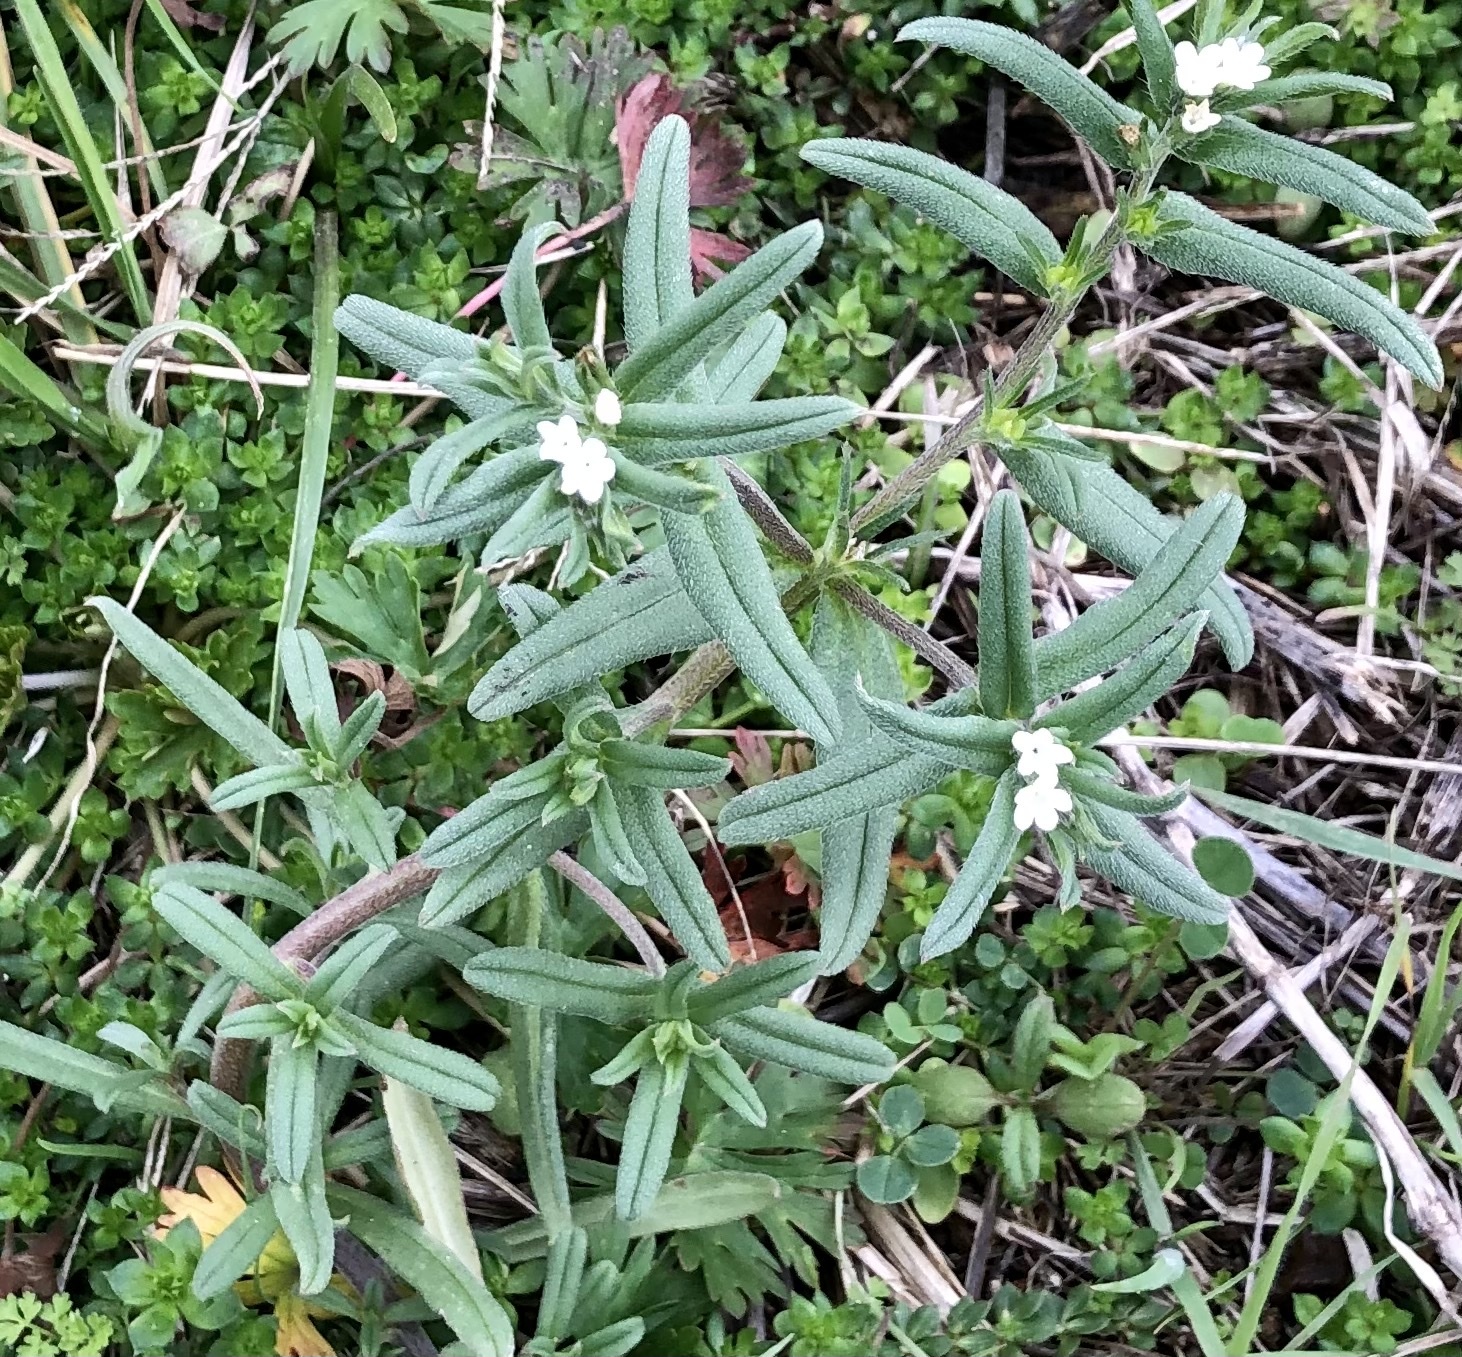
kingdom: Plantae
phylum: Tracheophyta
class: Magnoliopsida
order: Boraginales
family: Boraginaceae
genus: Buglossoides
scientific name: Buglossoides arvensis
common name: Corn gromwell
